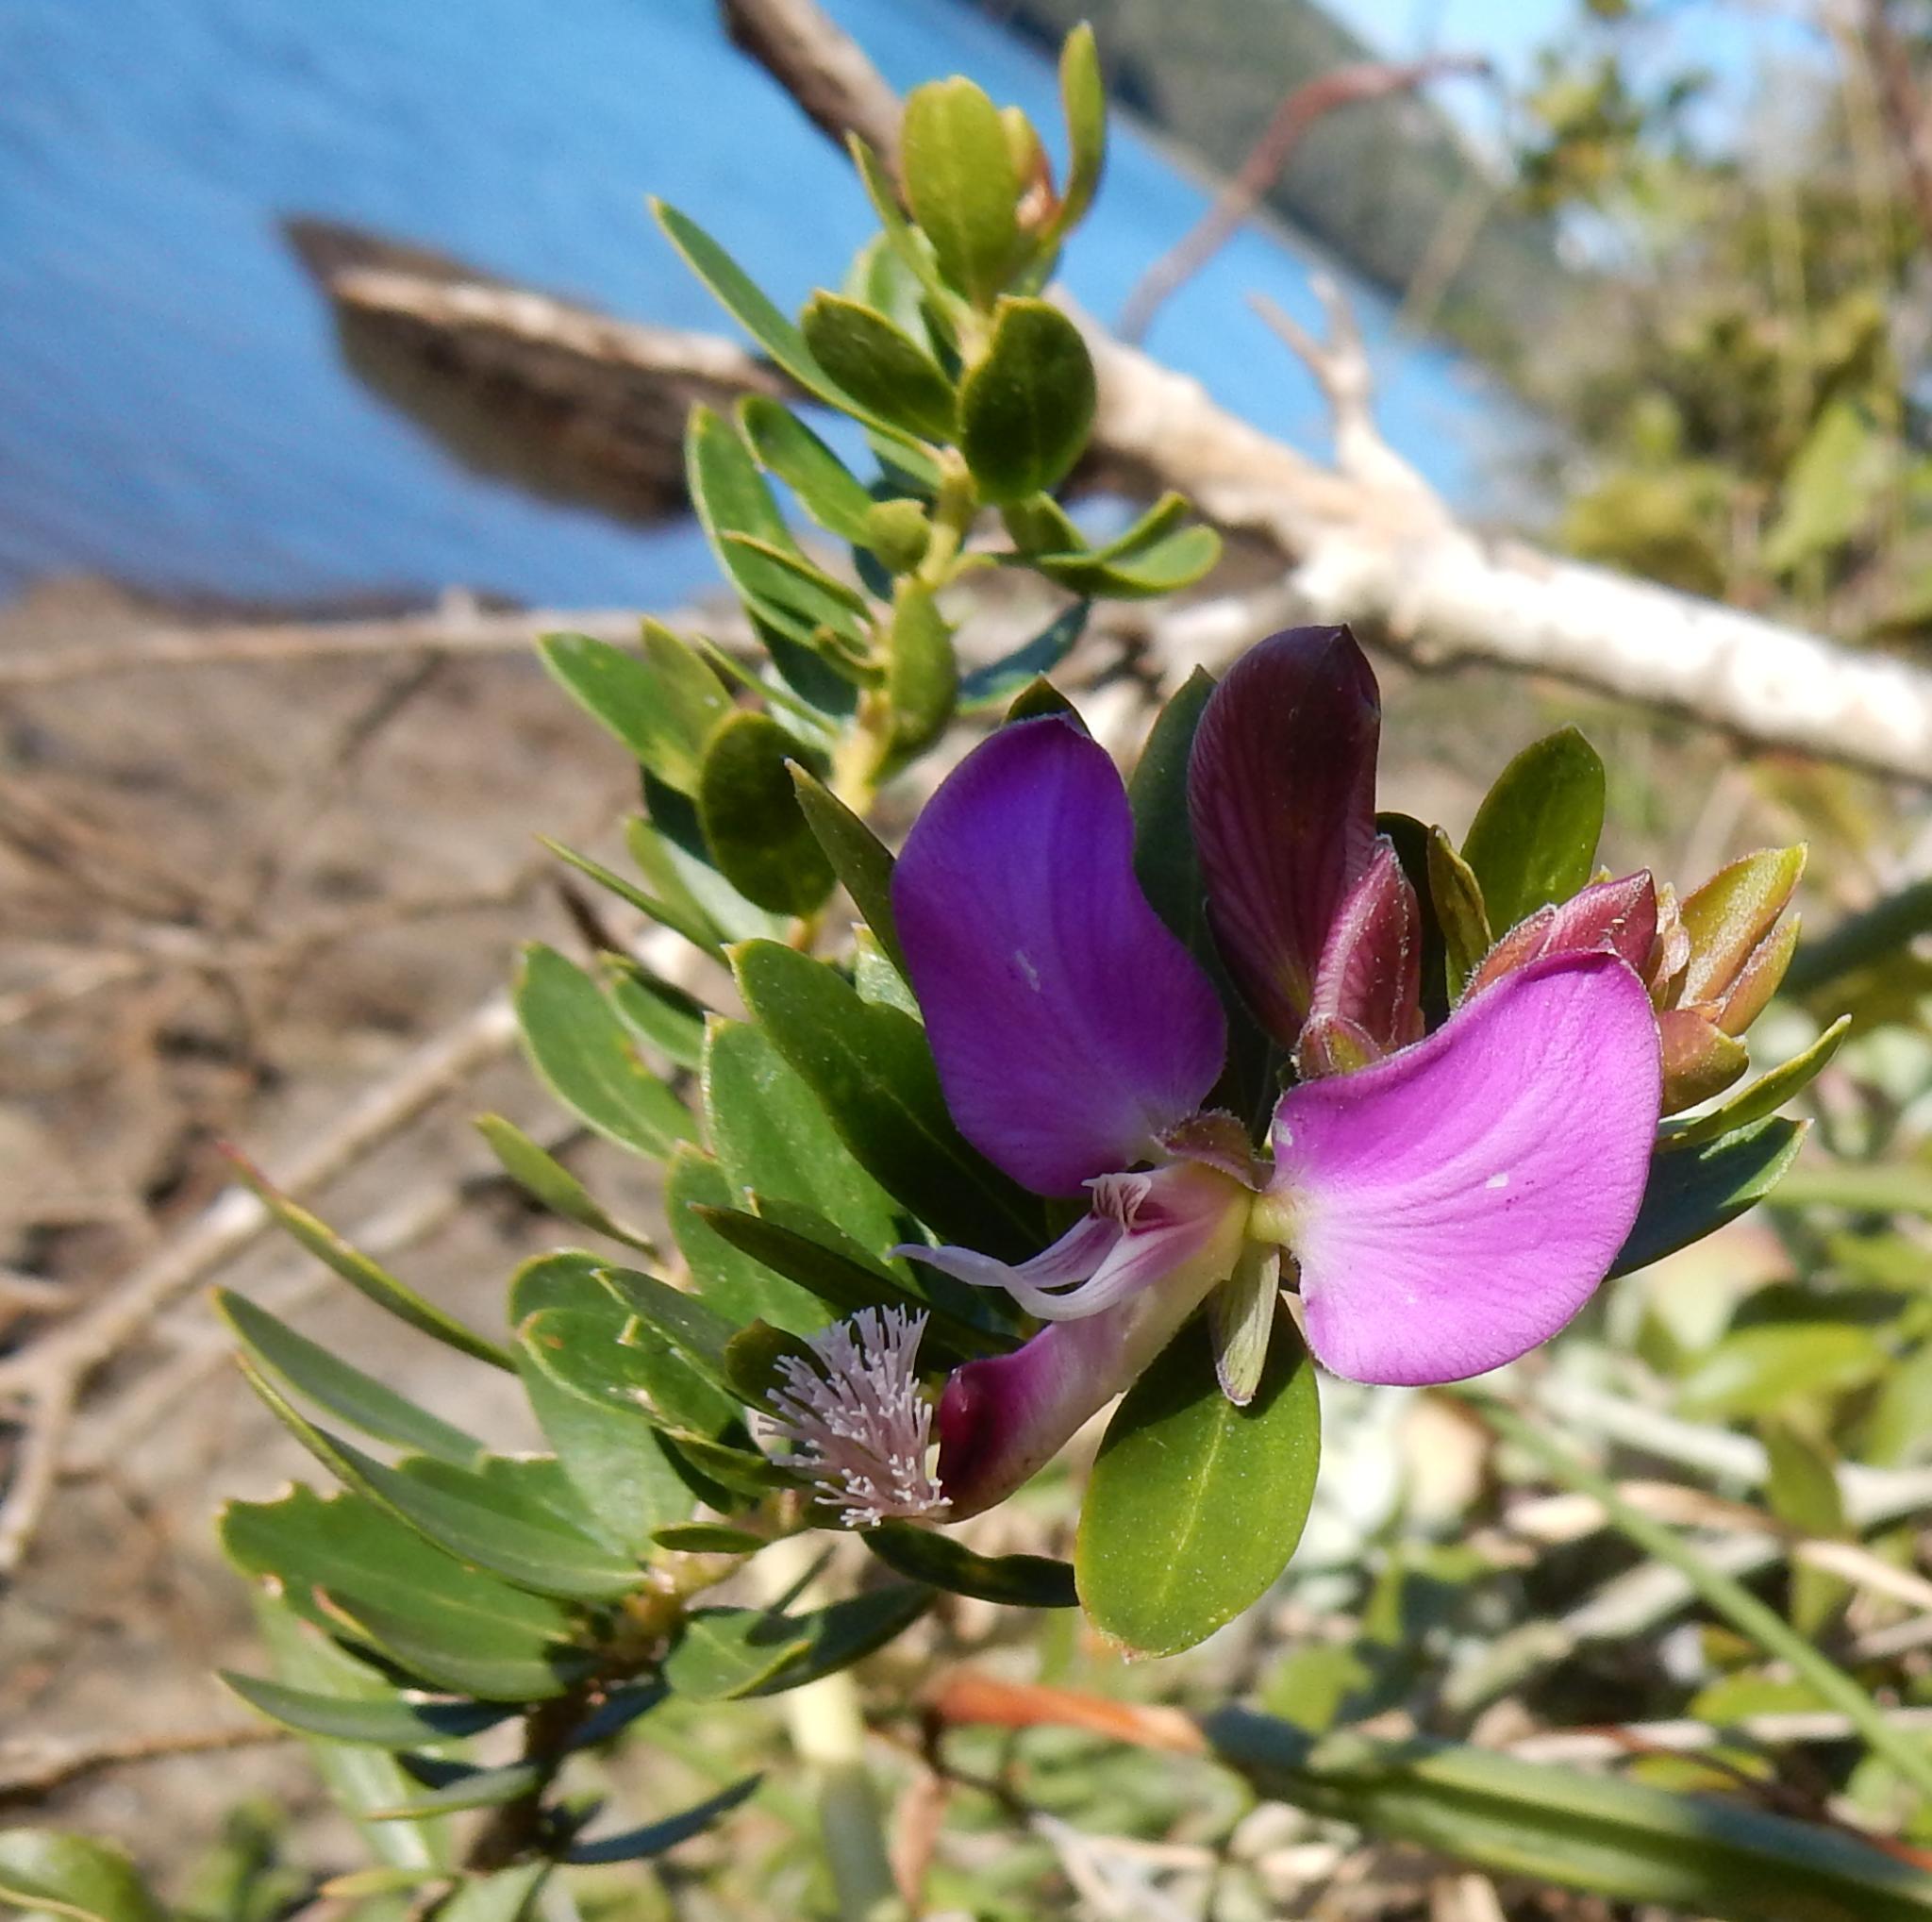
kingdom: Plantae
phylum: Tracheophyta
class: Magnoliopsida
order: Fabales
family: Polygalaceae
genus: Polygala
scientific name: Polygala myrtifolia
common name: Myrtle-leaf milkwort
